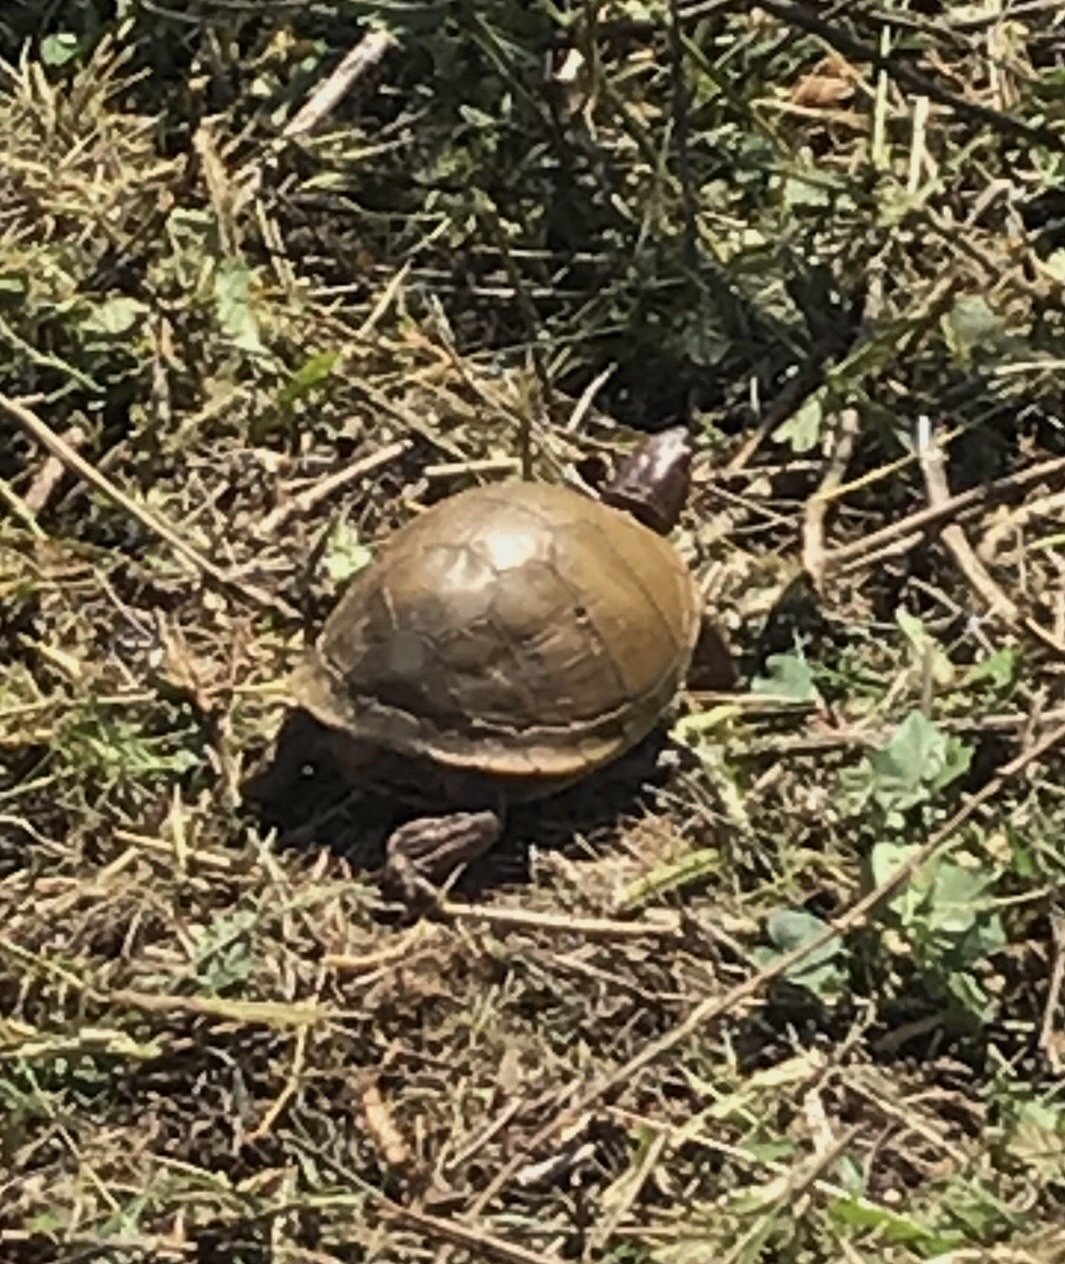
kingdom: Animalia
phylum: Chordata
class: Testudines
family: Emydidae
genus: Terrapene
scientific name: Terrapene carolina
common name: Common box turtle
